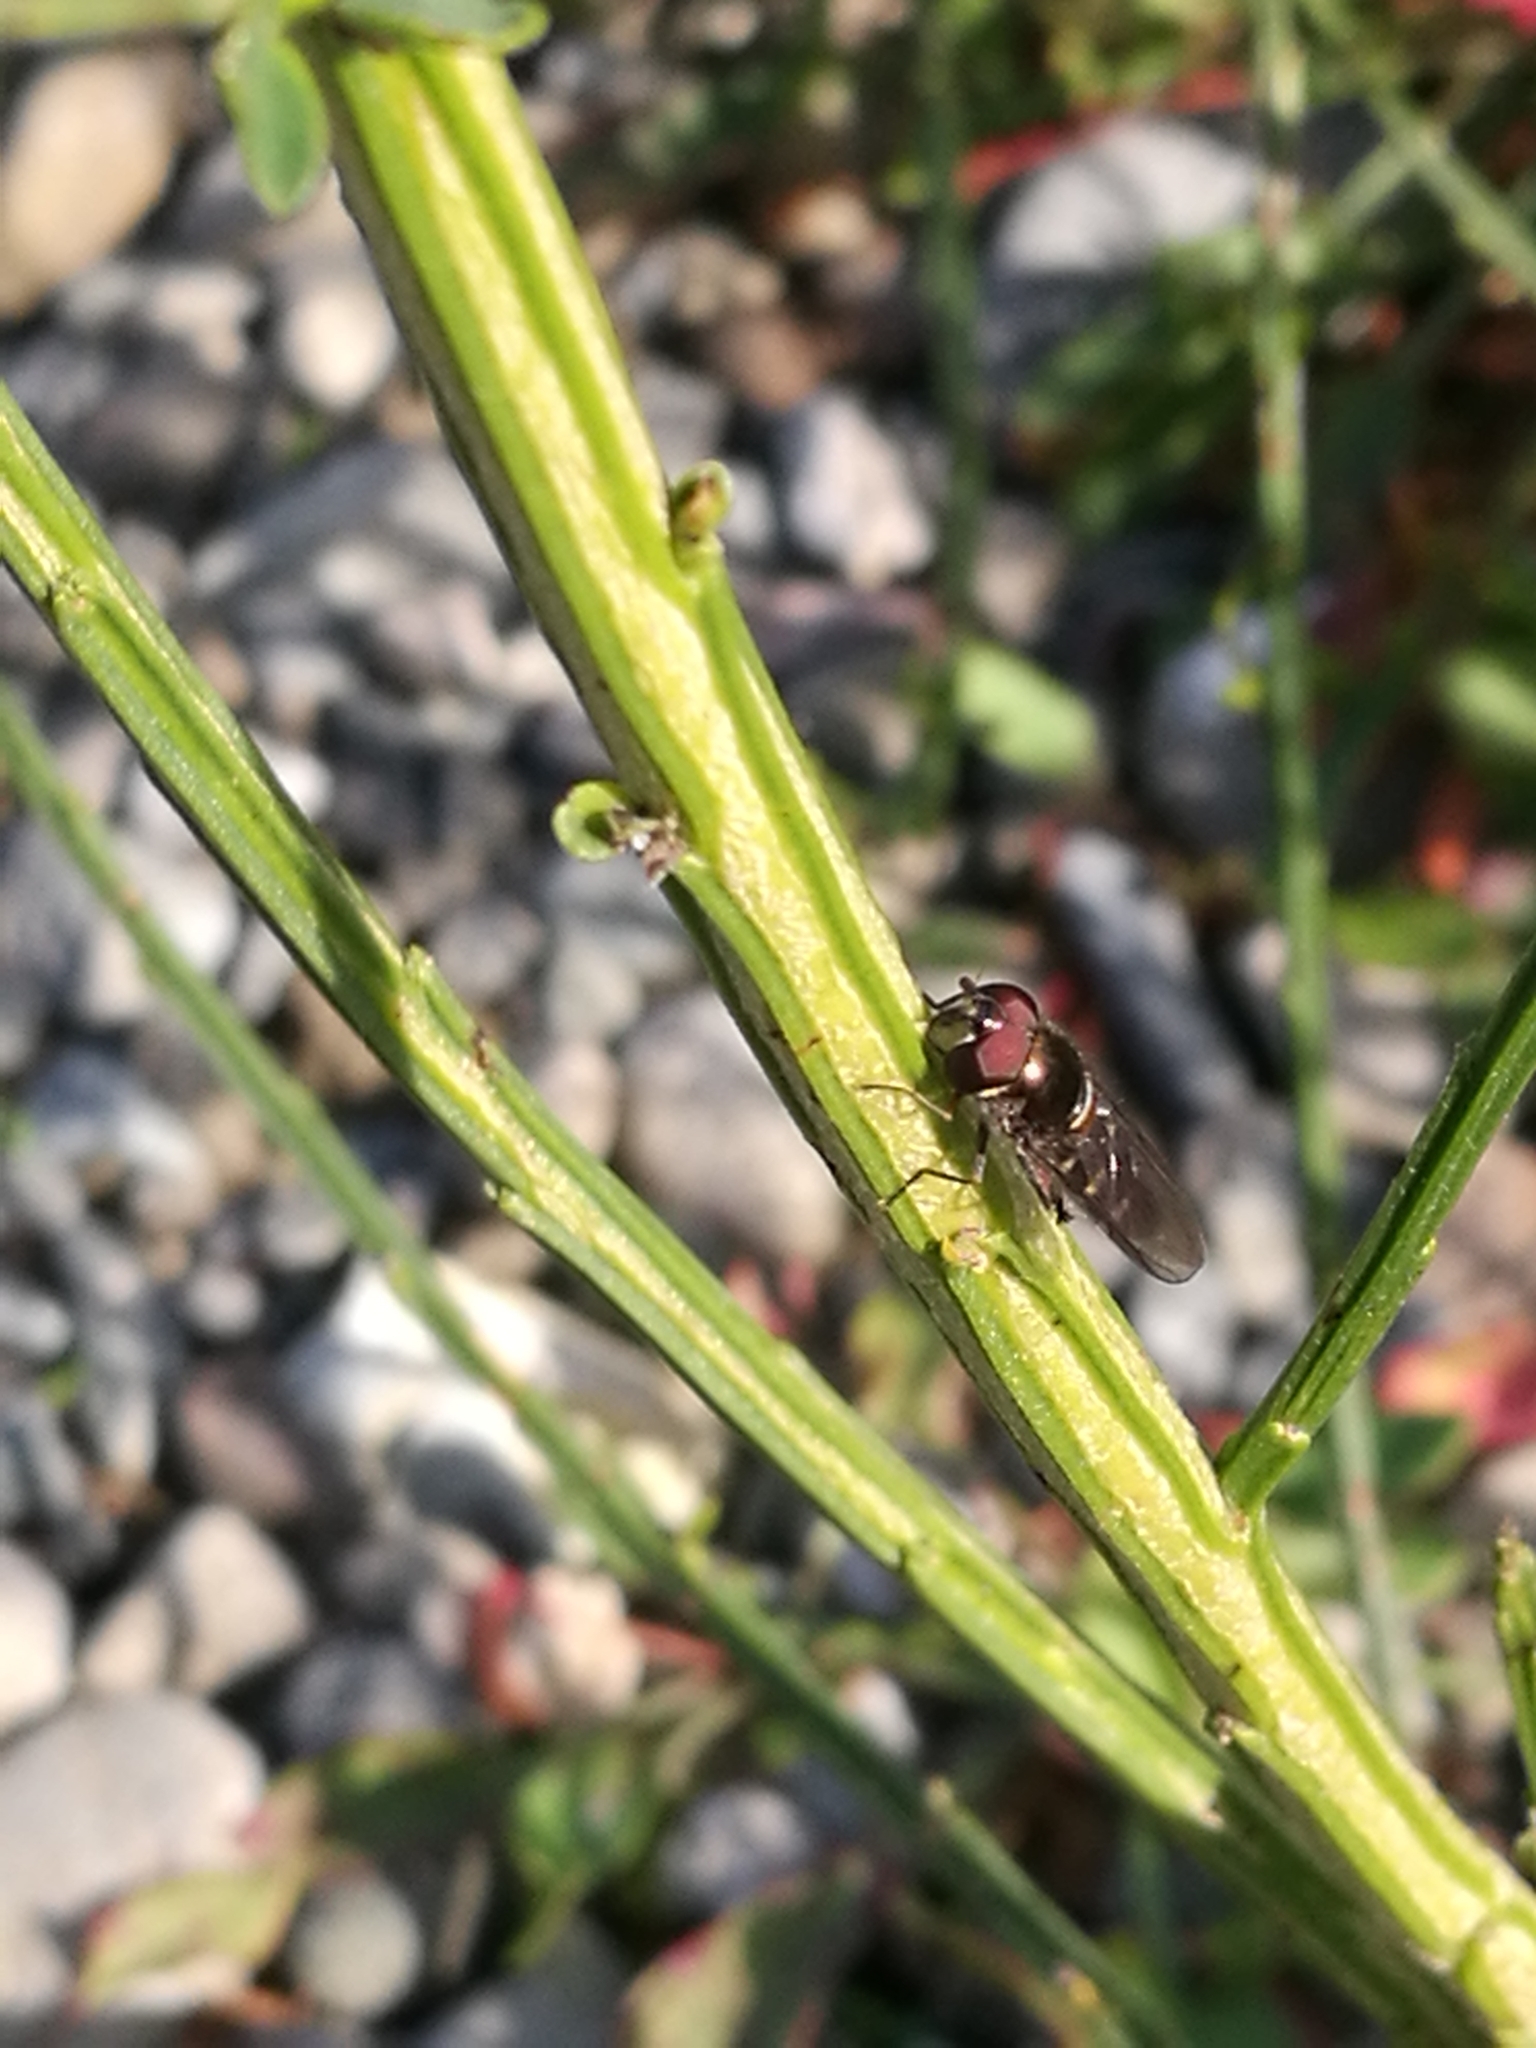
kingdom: Animalia
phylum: Arthropoda
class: Insecta
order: Diptera
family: Syrphidae
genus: Melangyna
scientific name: Melangyna novaezelandiae
